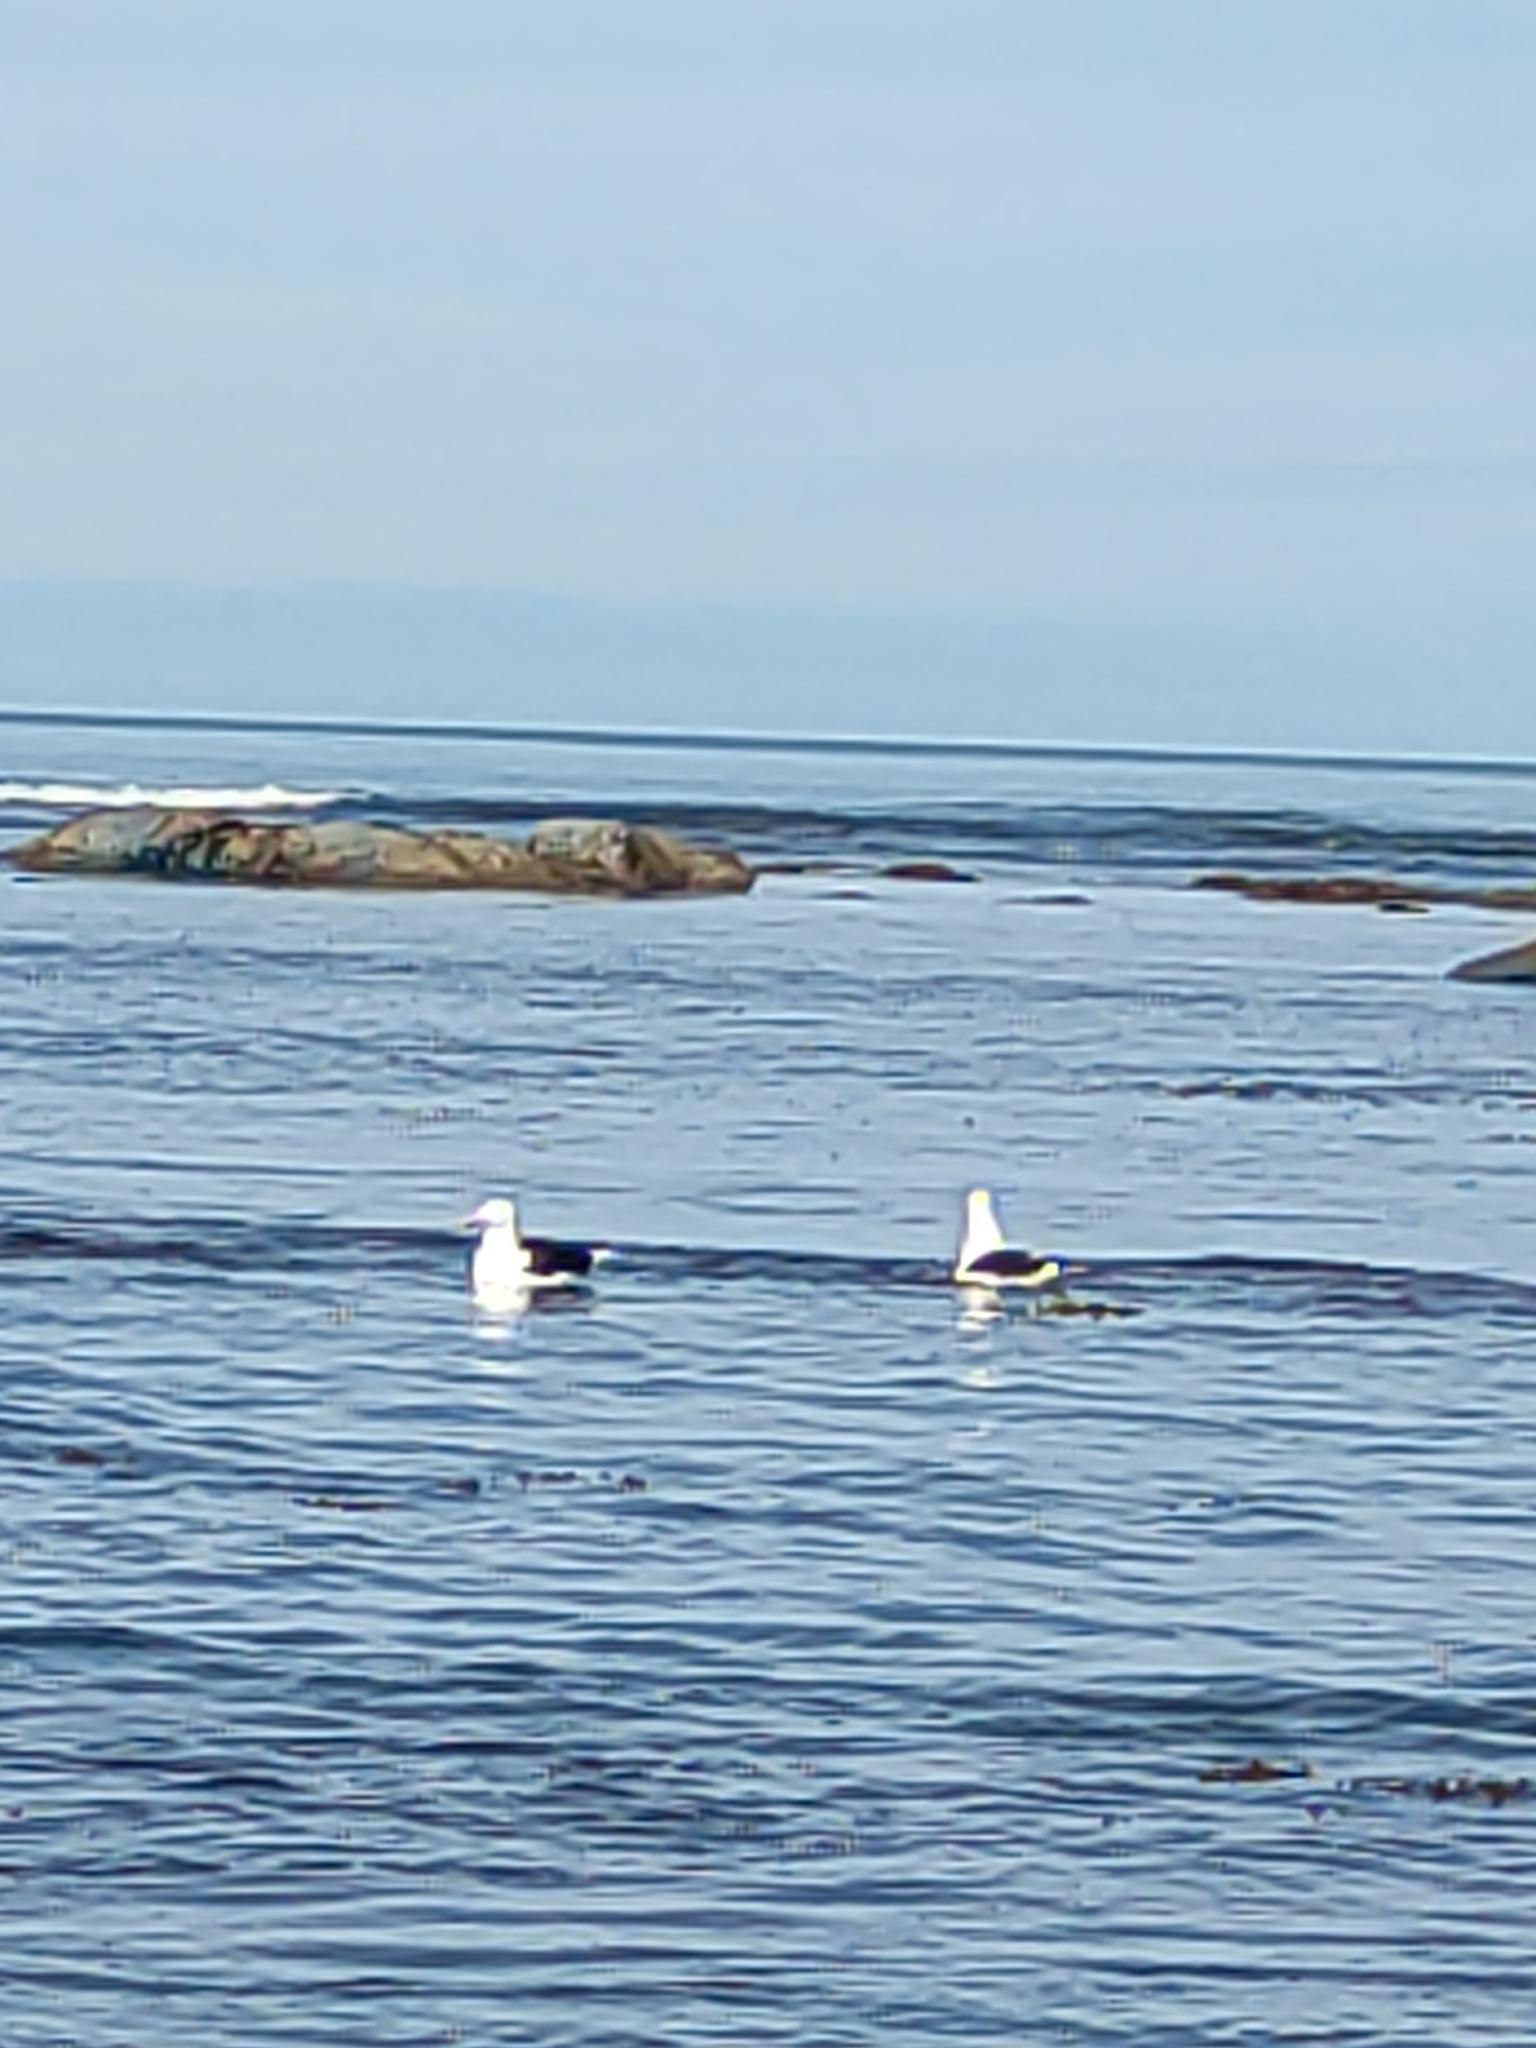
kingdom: Animalia
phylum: Chordata
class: Aves
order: Charadriiformes
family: Laridae
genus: Larus
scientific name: Larus dominicanus
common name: Kelp gull
